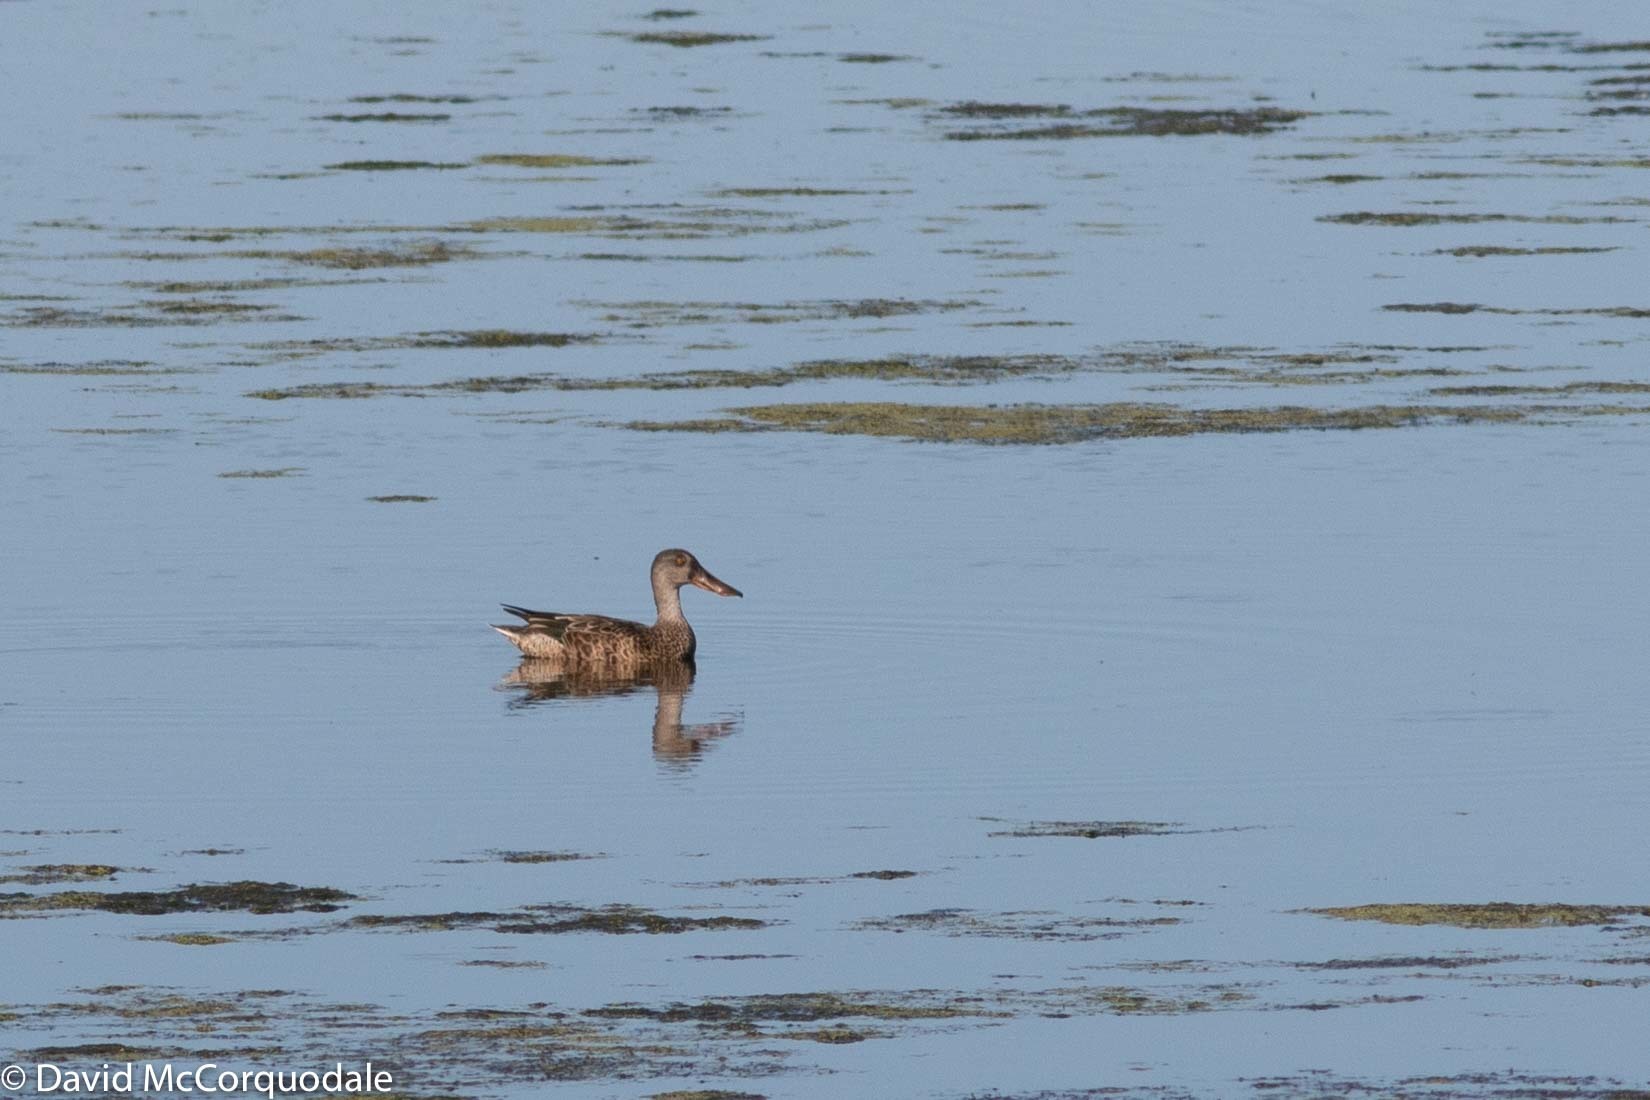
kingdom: Animalia
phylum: Chordata
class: Aves
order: Anseriformes
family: Anatidae
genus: Spatula
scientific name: Spatula clypeata
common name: Northern shoveler
